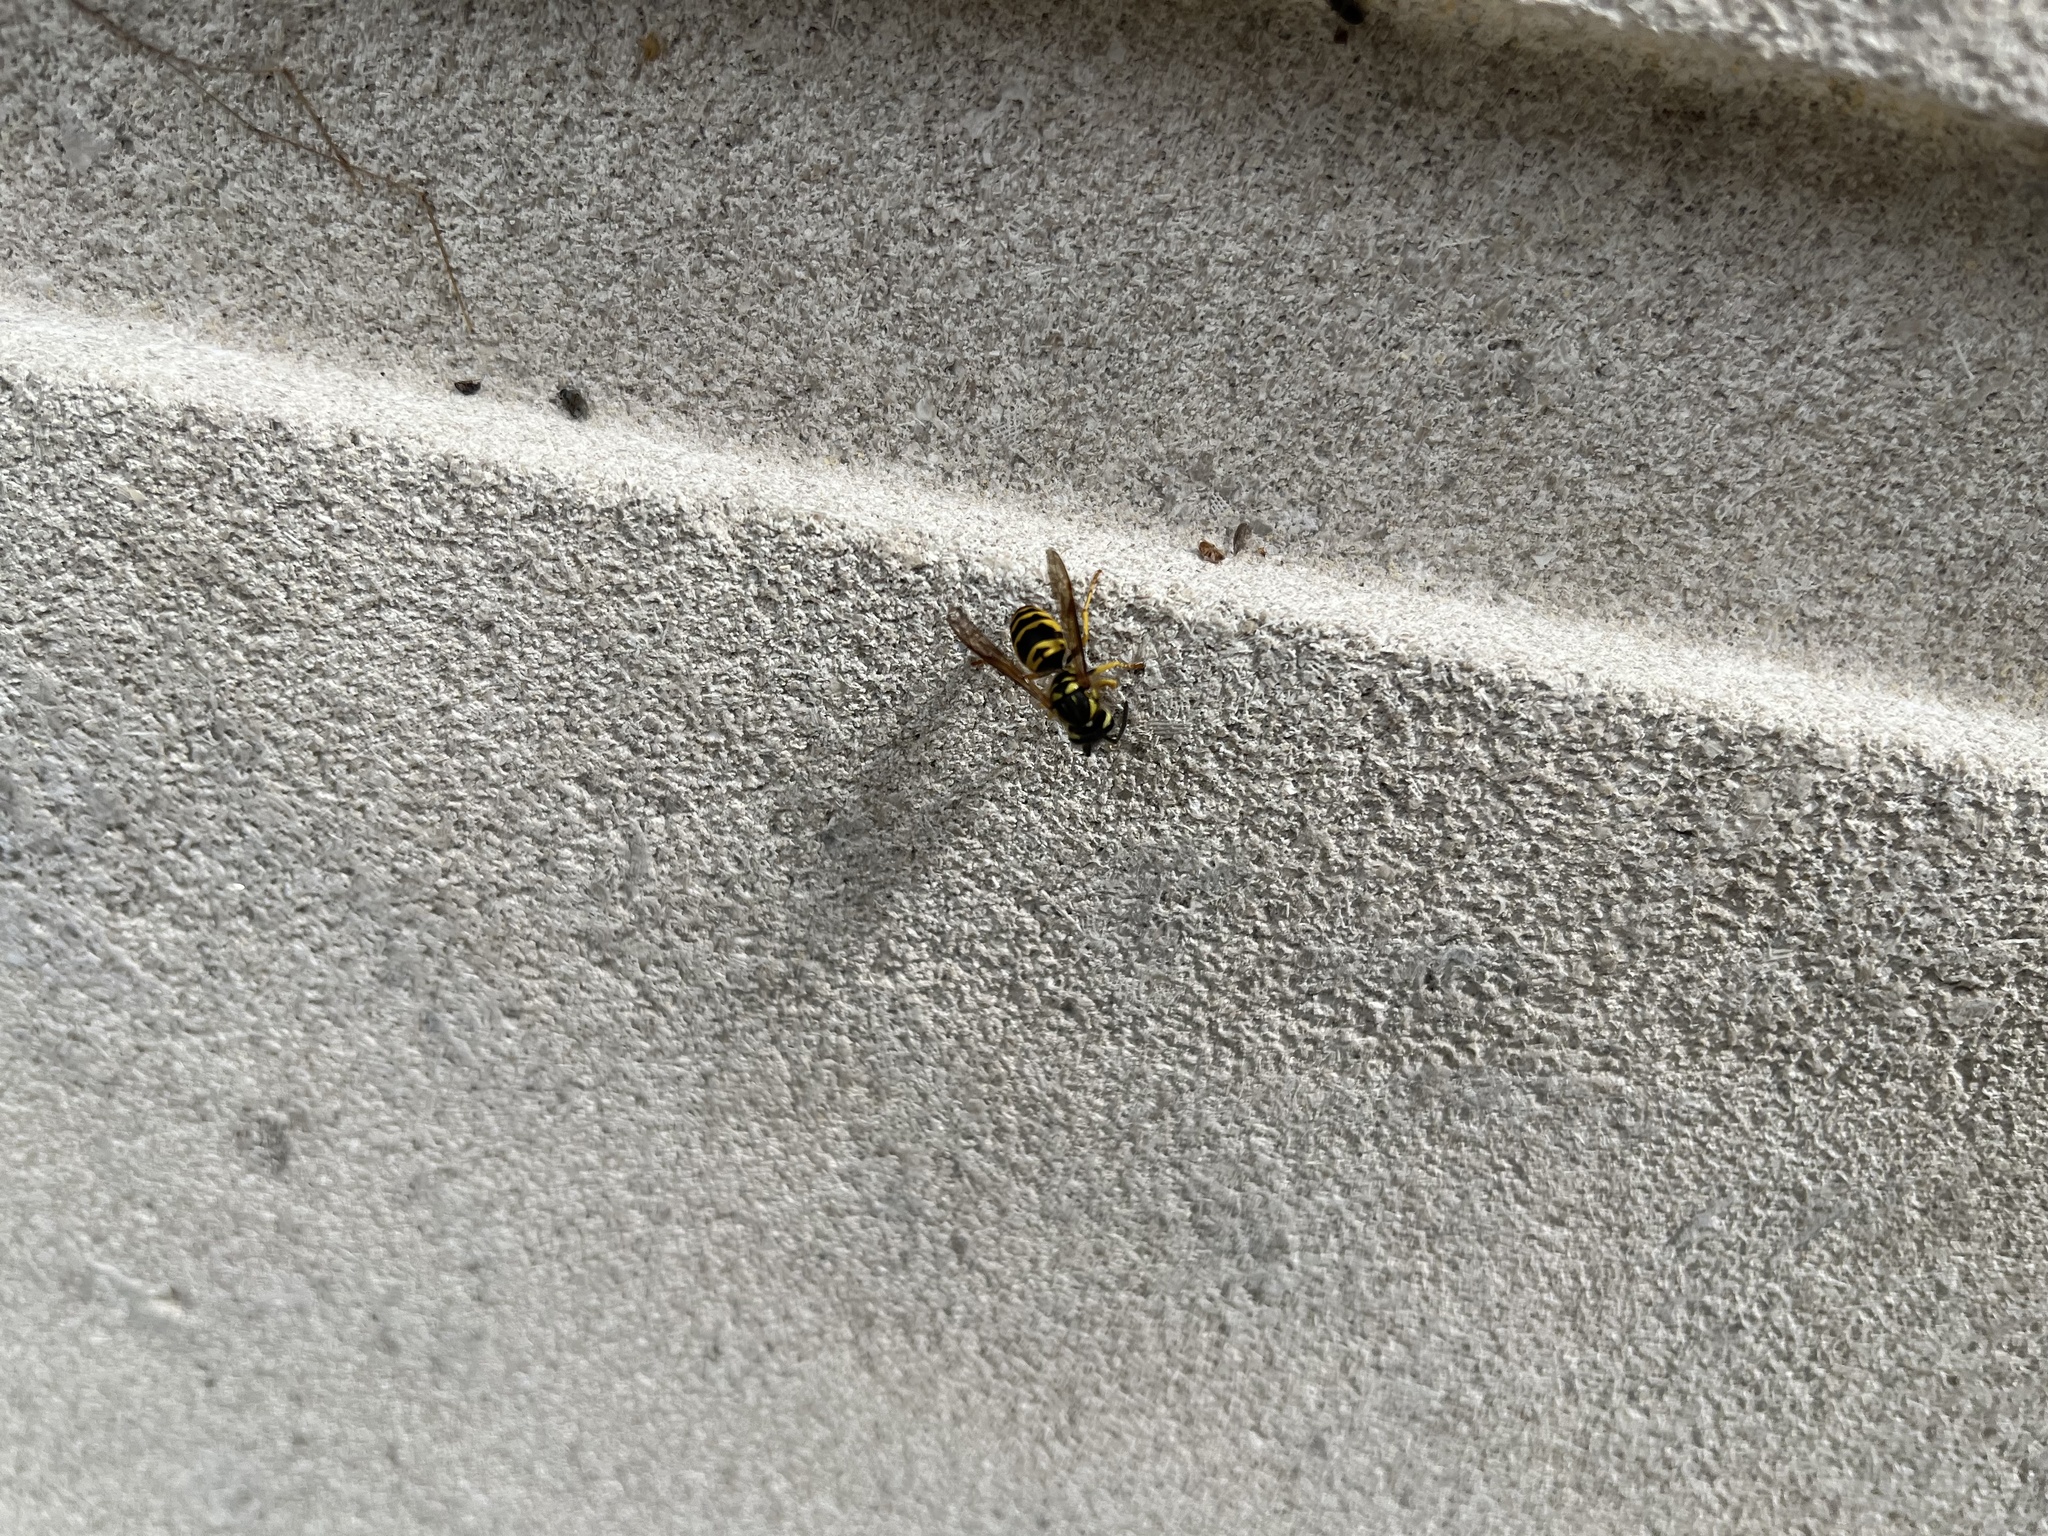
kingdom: Animalia
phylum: Arthropoda
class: Insecta
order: Hymenoptera
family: Vespidae
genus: Vespula
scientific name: Vespula maculifrons
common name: Eastern yellowjacket
